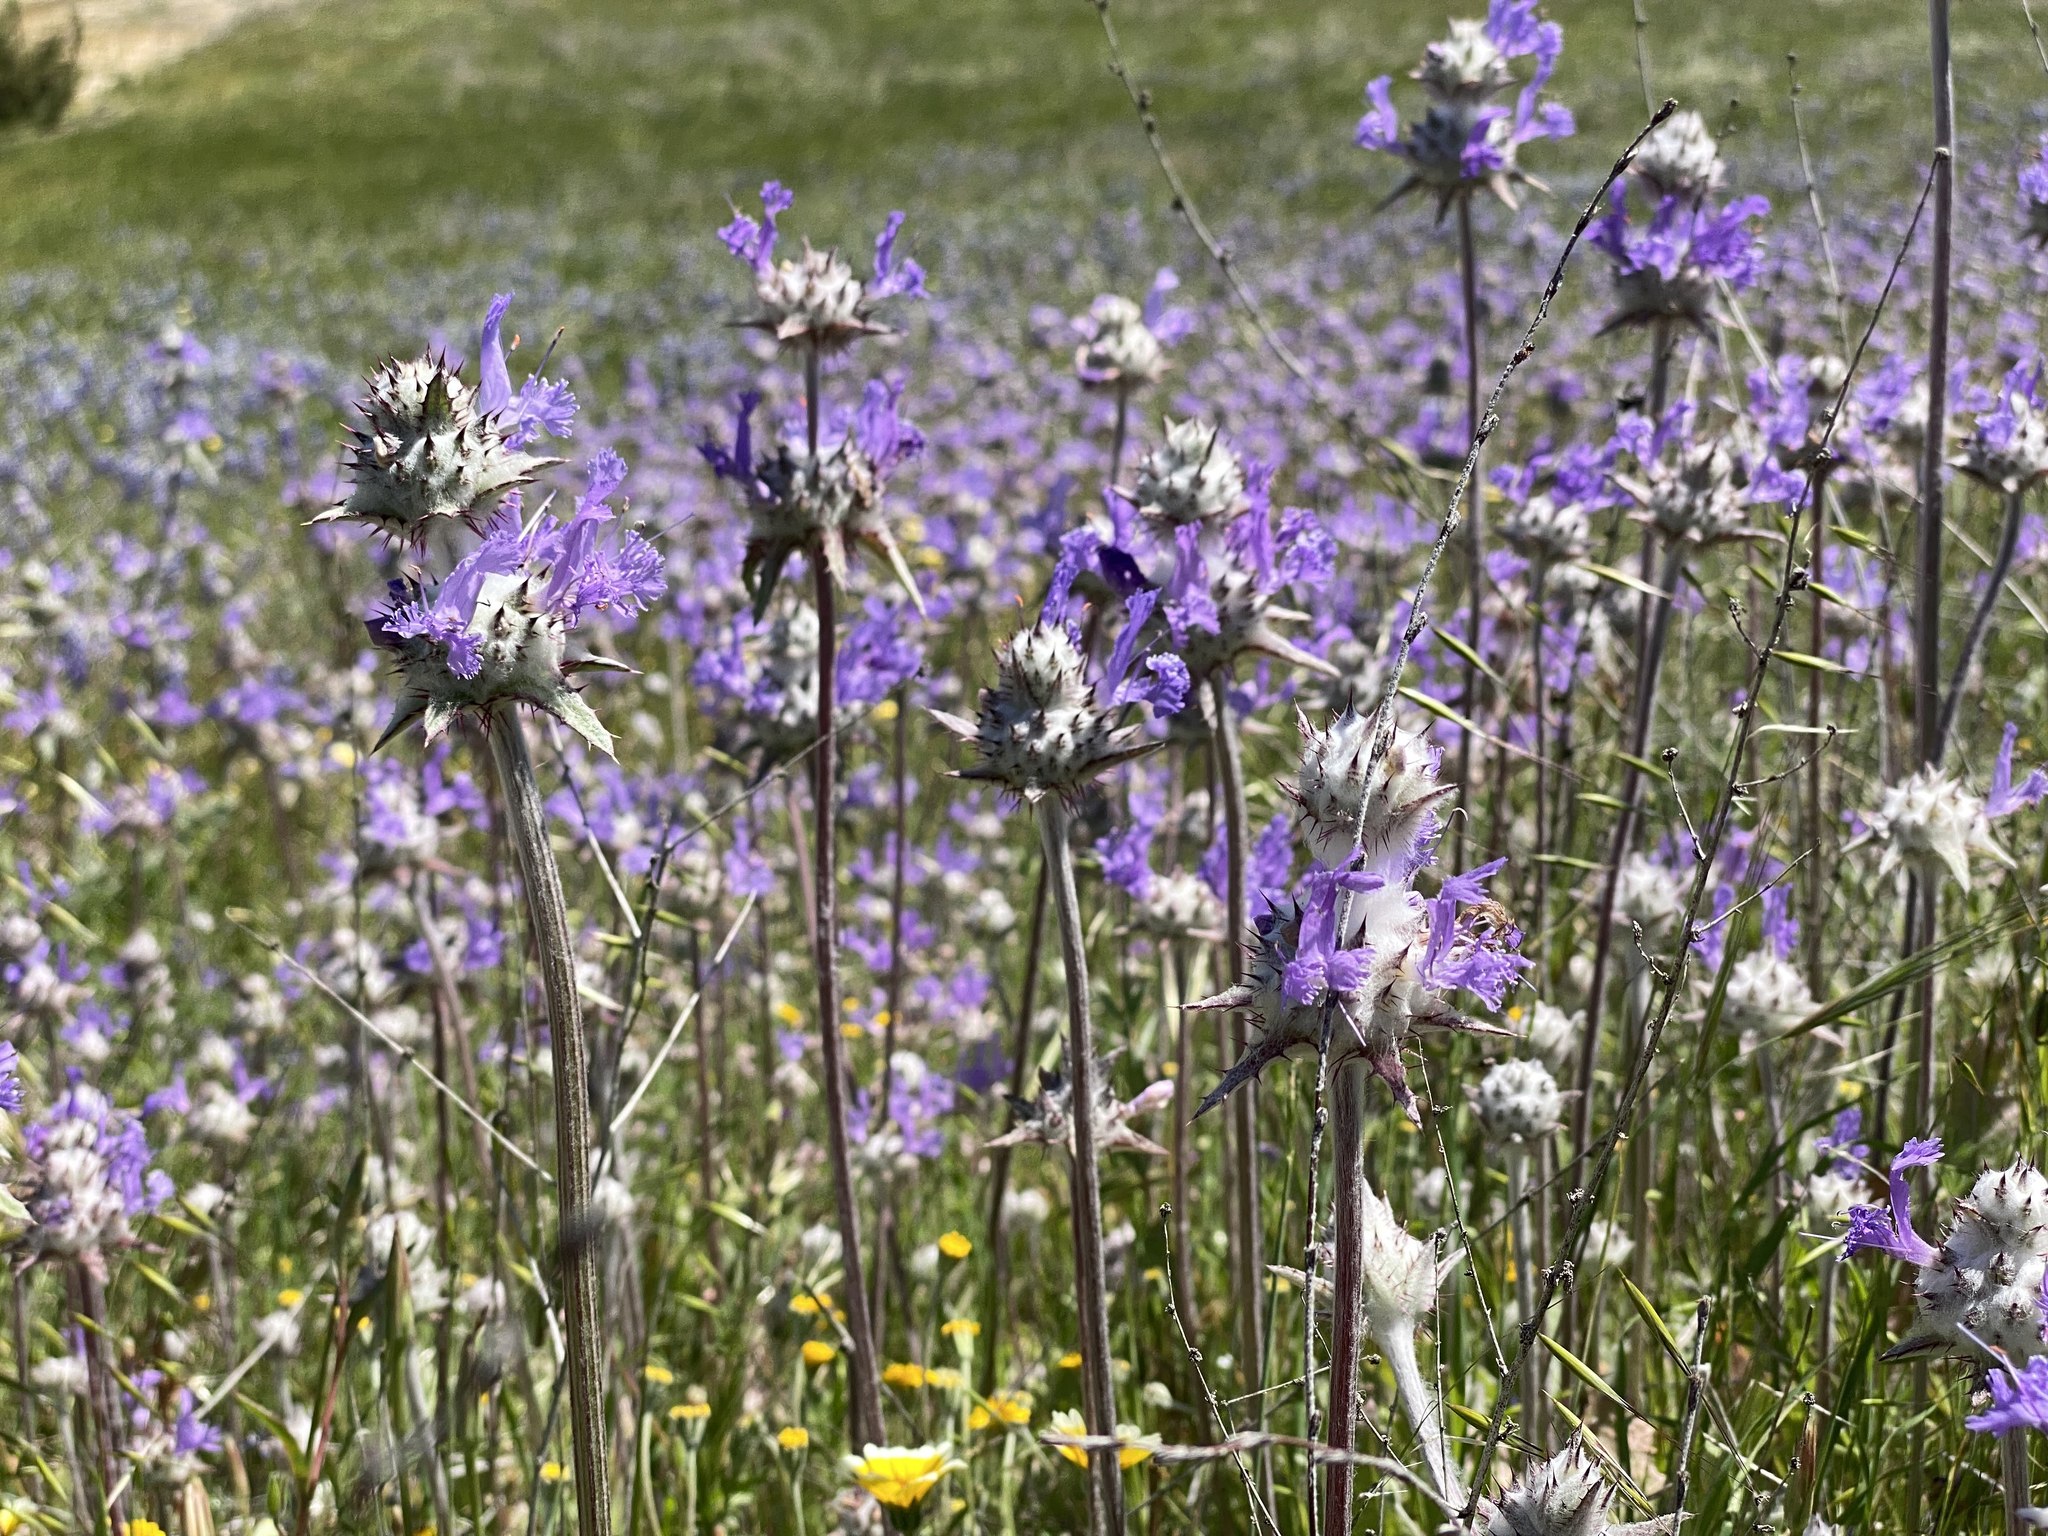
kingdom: Plantae
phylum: Tracheophyta
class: Magnoliopsida
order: Lamiales
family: Lamiaceae
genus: Salvia
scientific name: Salvia carduacea
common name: Thistle sage
